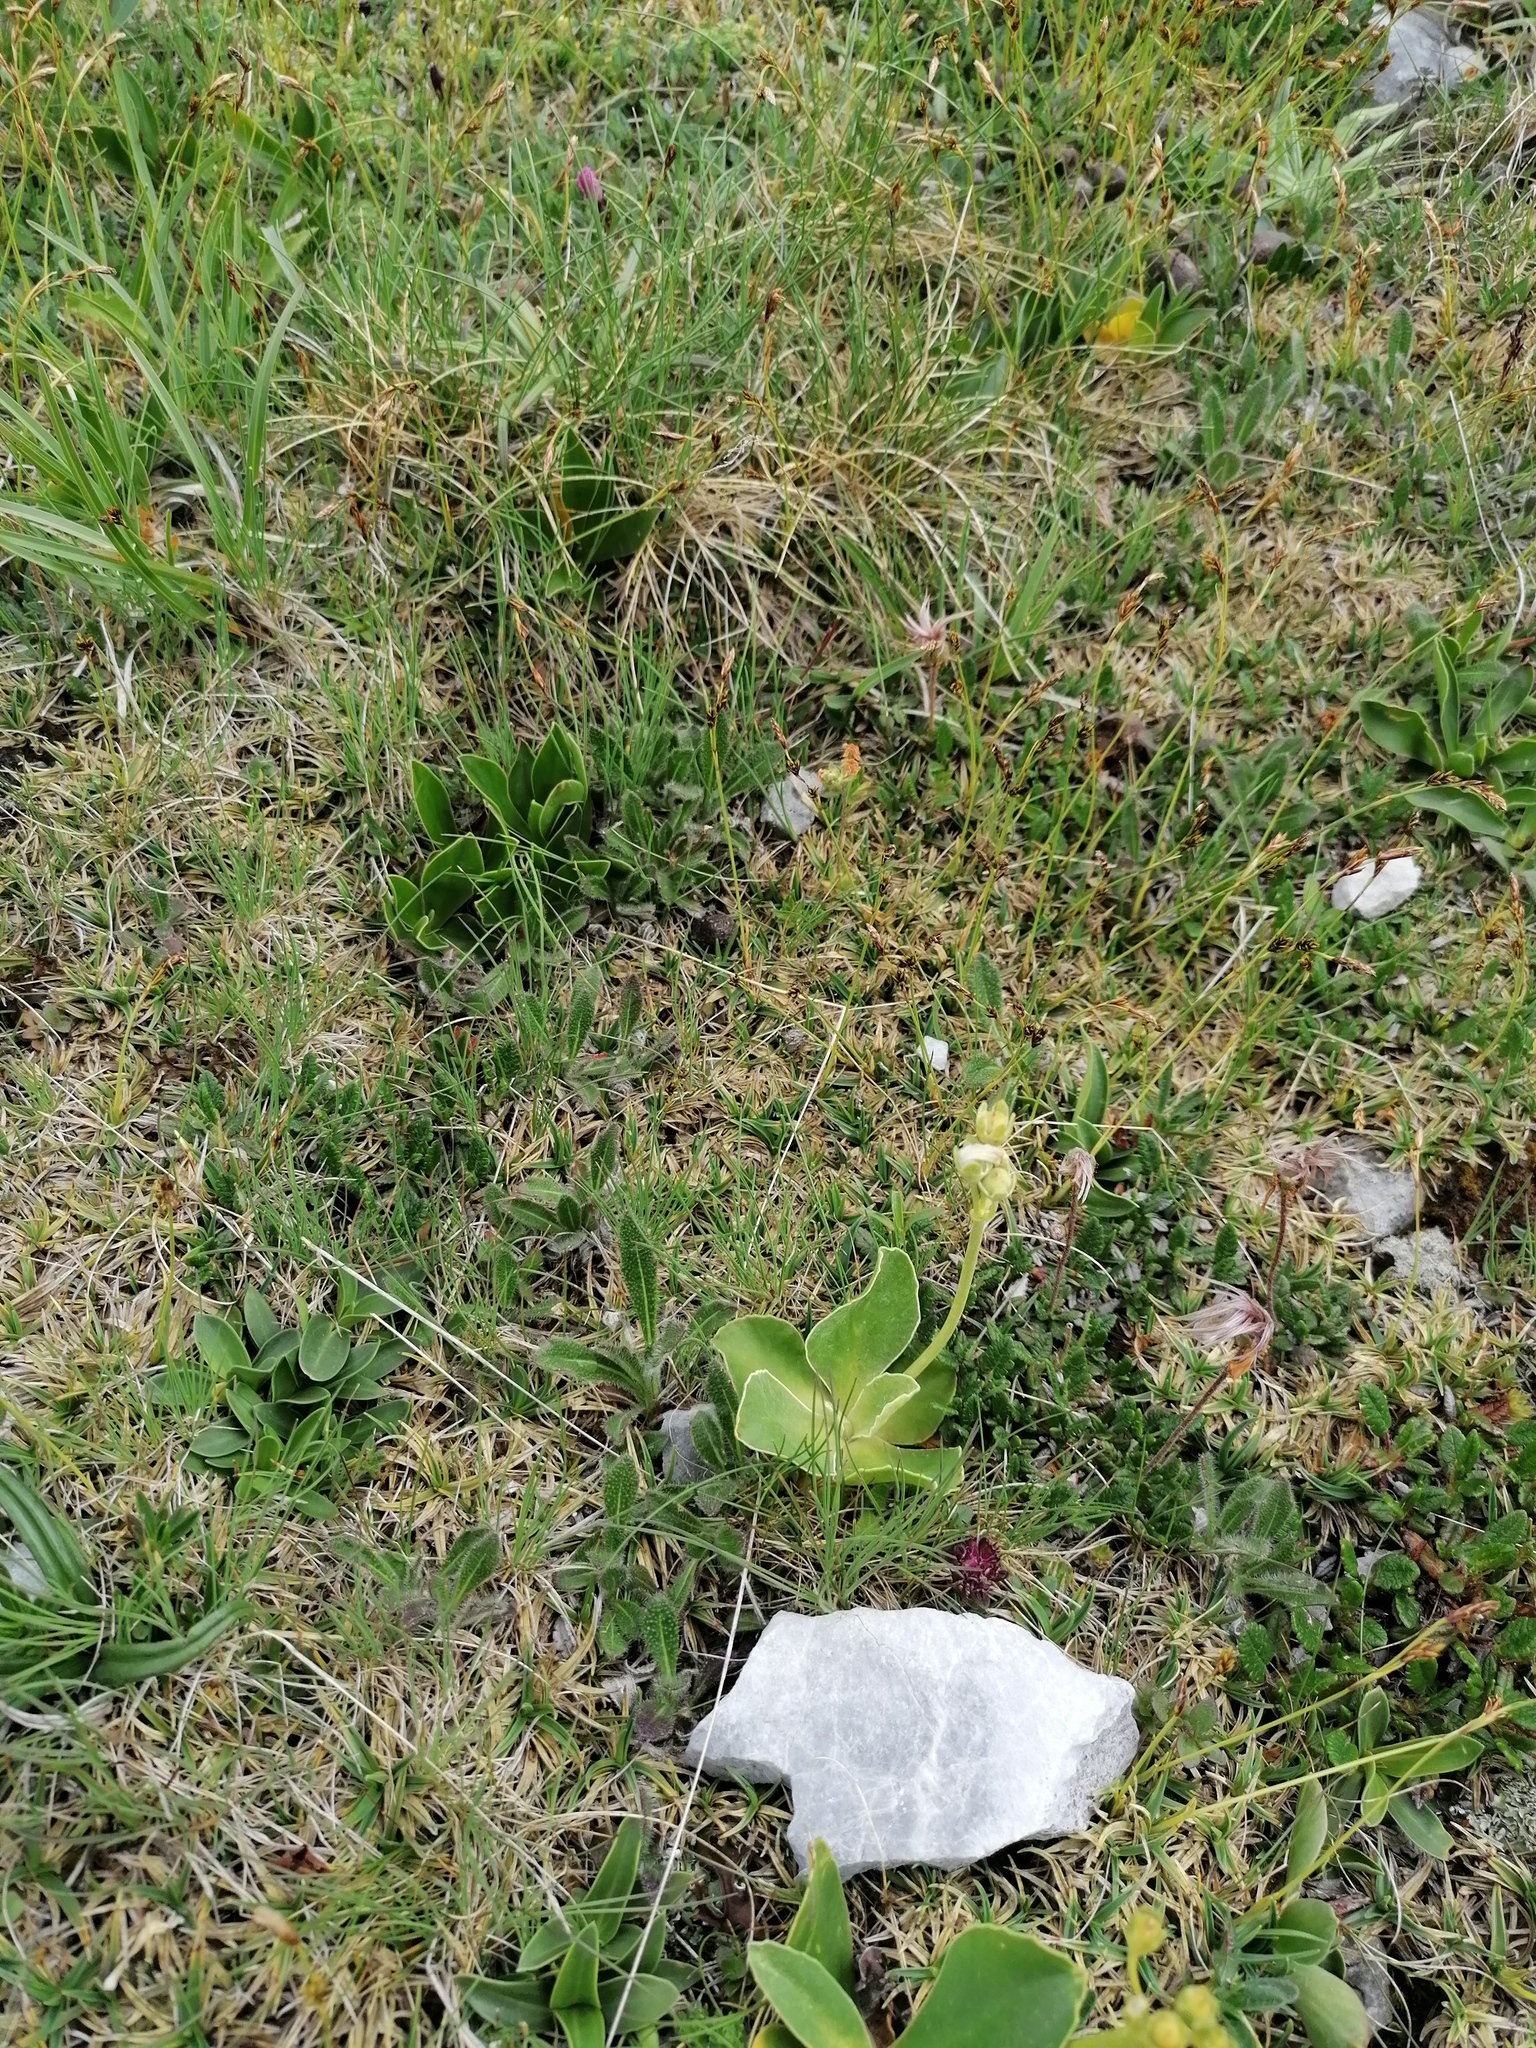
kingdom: Plantae
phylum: Tracheophyta
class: Magnoliopsida
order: Ericales
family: Primulaceae
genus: Primula
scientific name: Primula auricula
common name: Auricula
